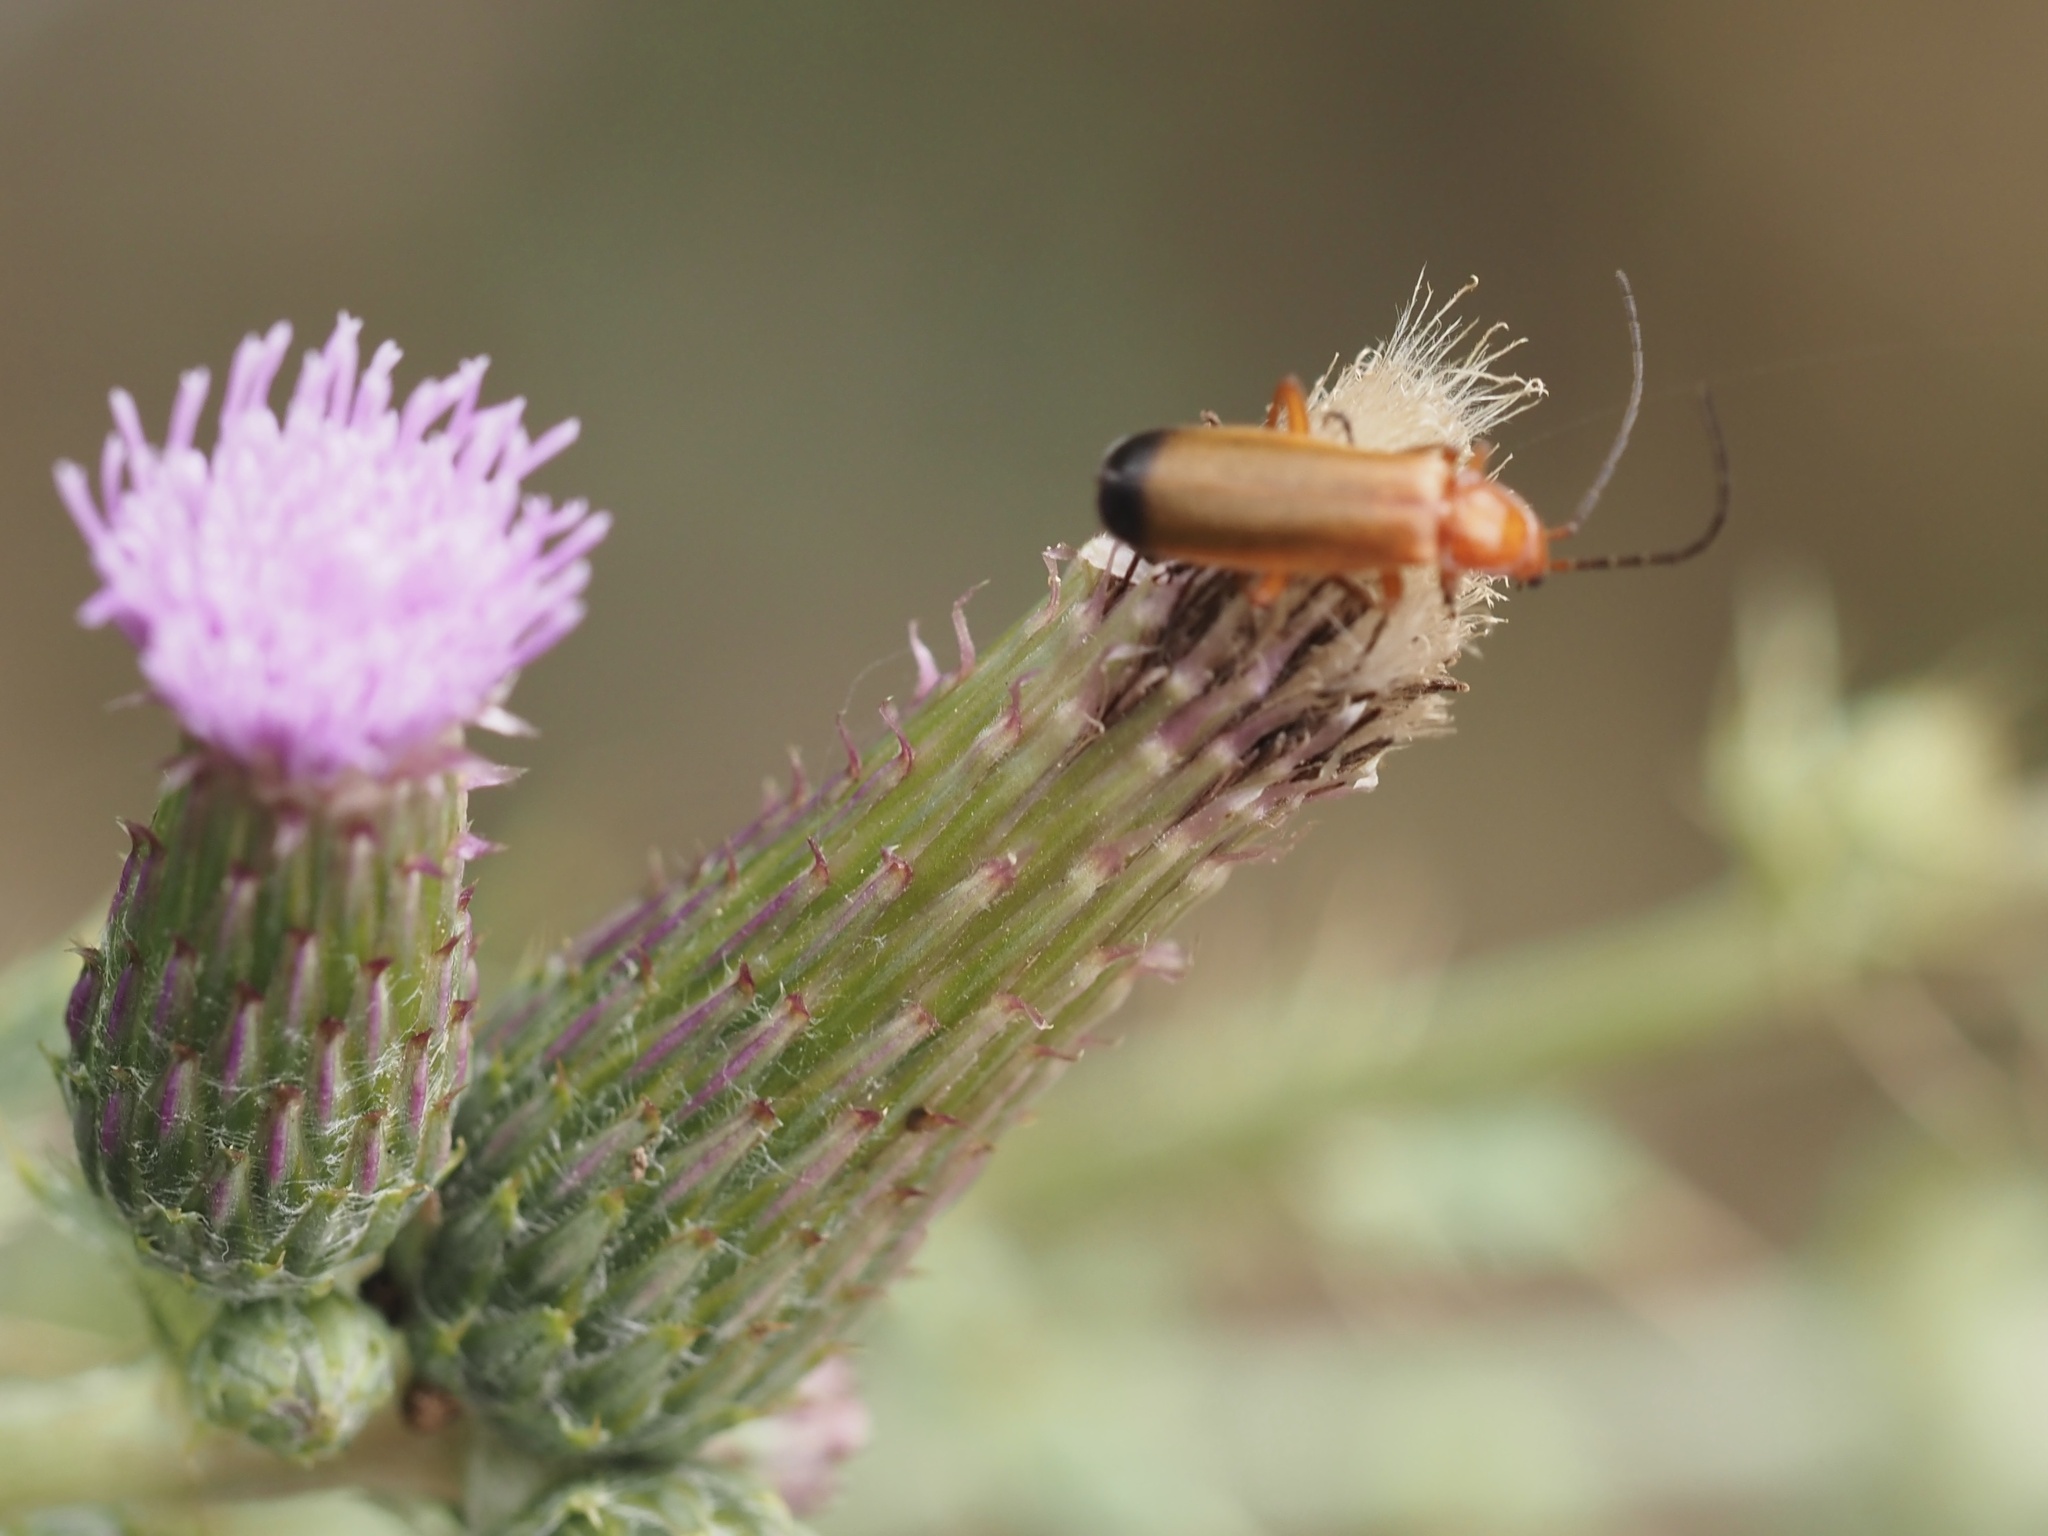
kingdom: Animalia
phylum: Arthropoda
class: Insecta
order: Coleoptera
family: Cantharidae
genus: Rhagonycha
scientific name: Rhagonycha fulva
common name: Common red soldier beetle
